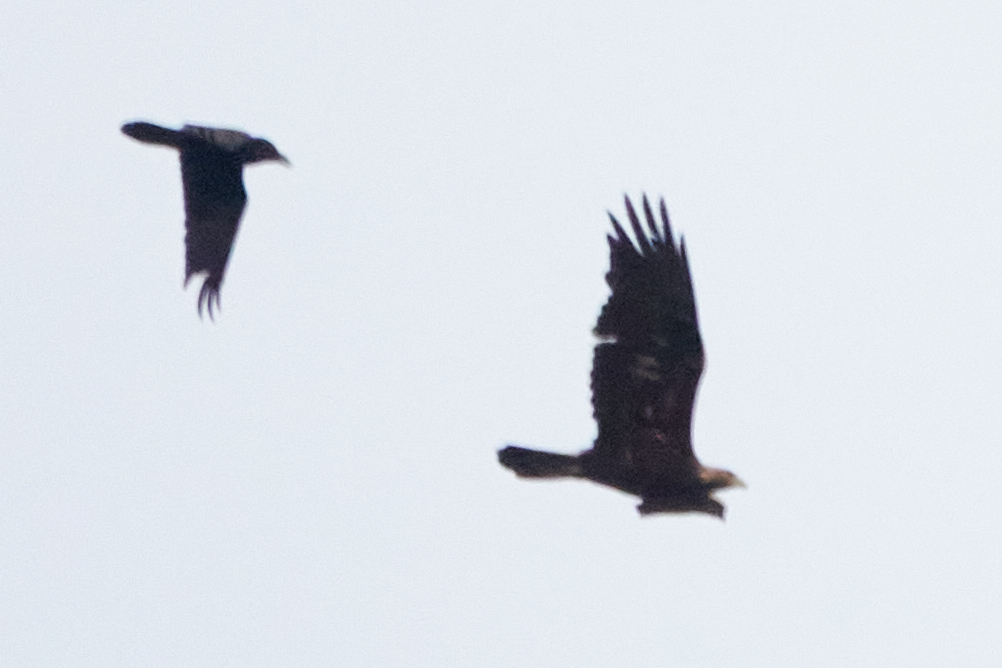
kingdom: Animalia
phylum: Chordata
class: Aves
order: Accipitriformes
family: Accipitridae
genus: Aquila
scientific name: Aquila chrysaetos
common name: Golden eagle
